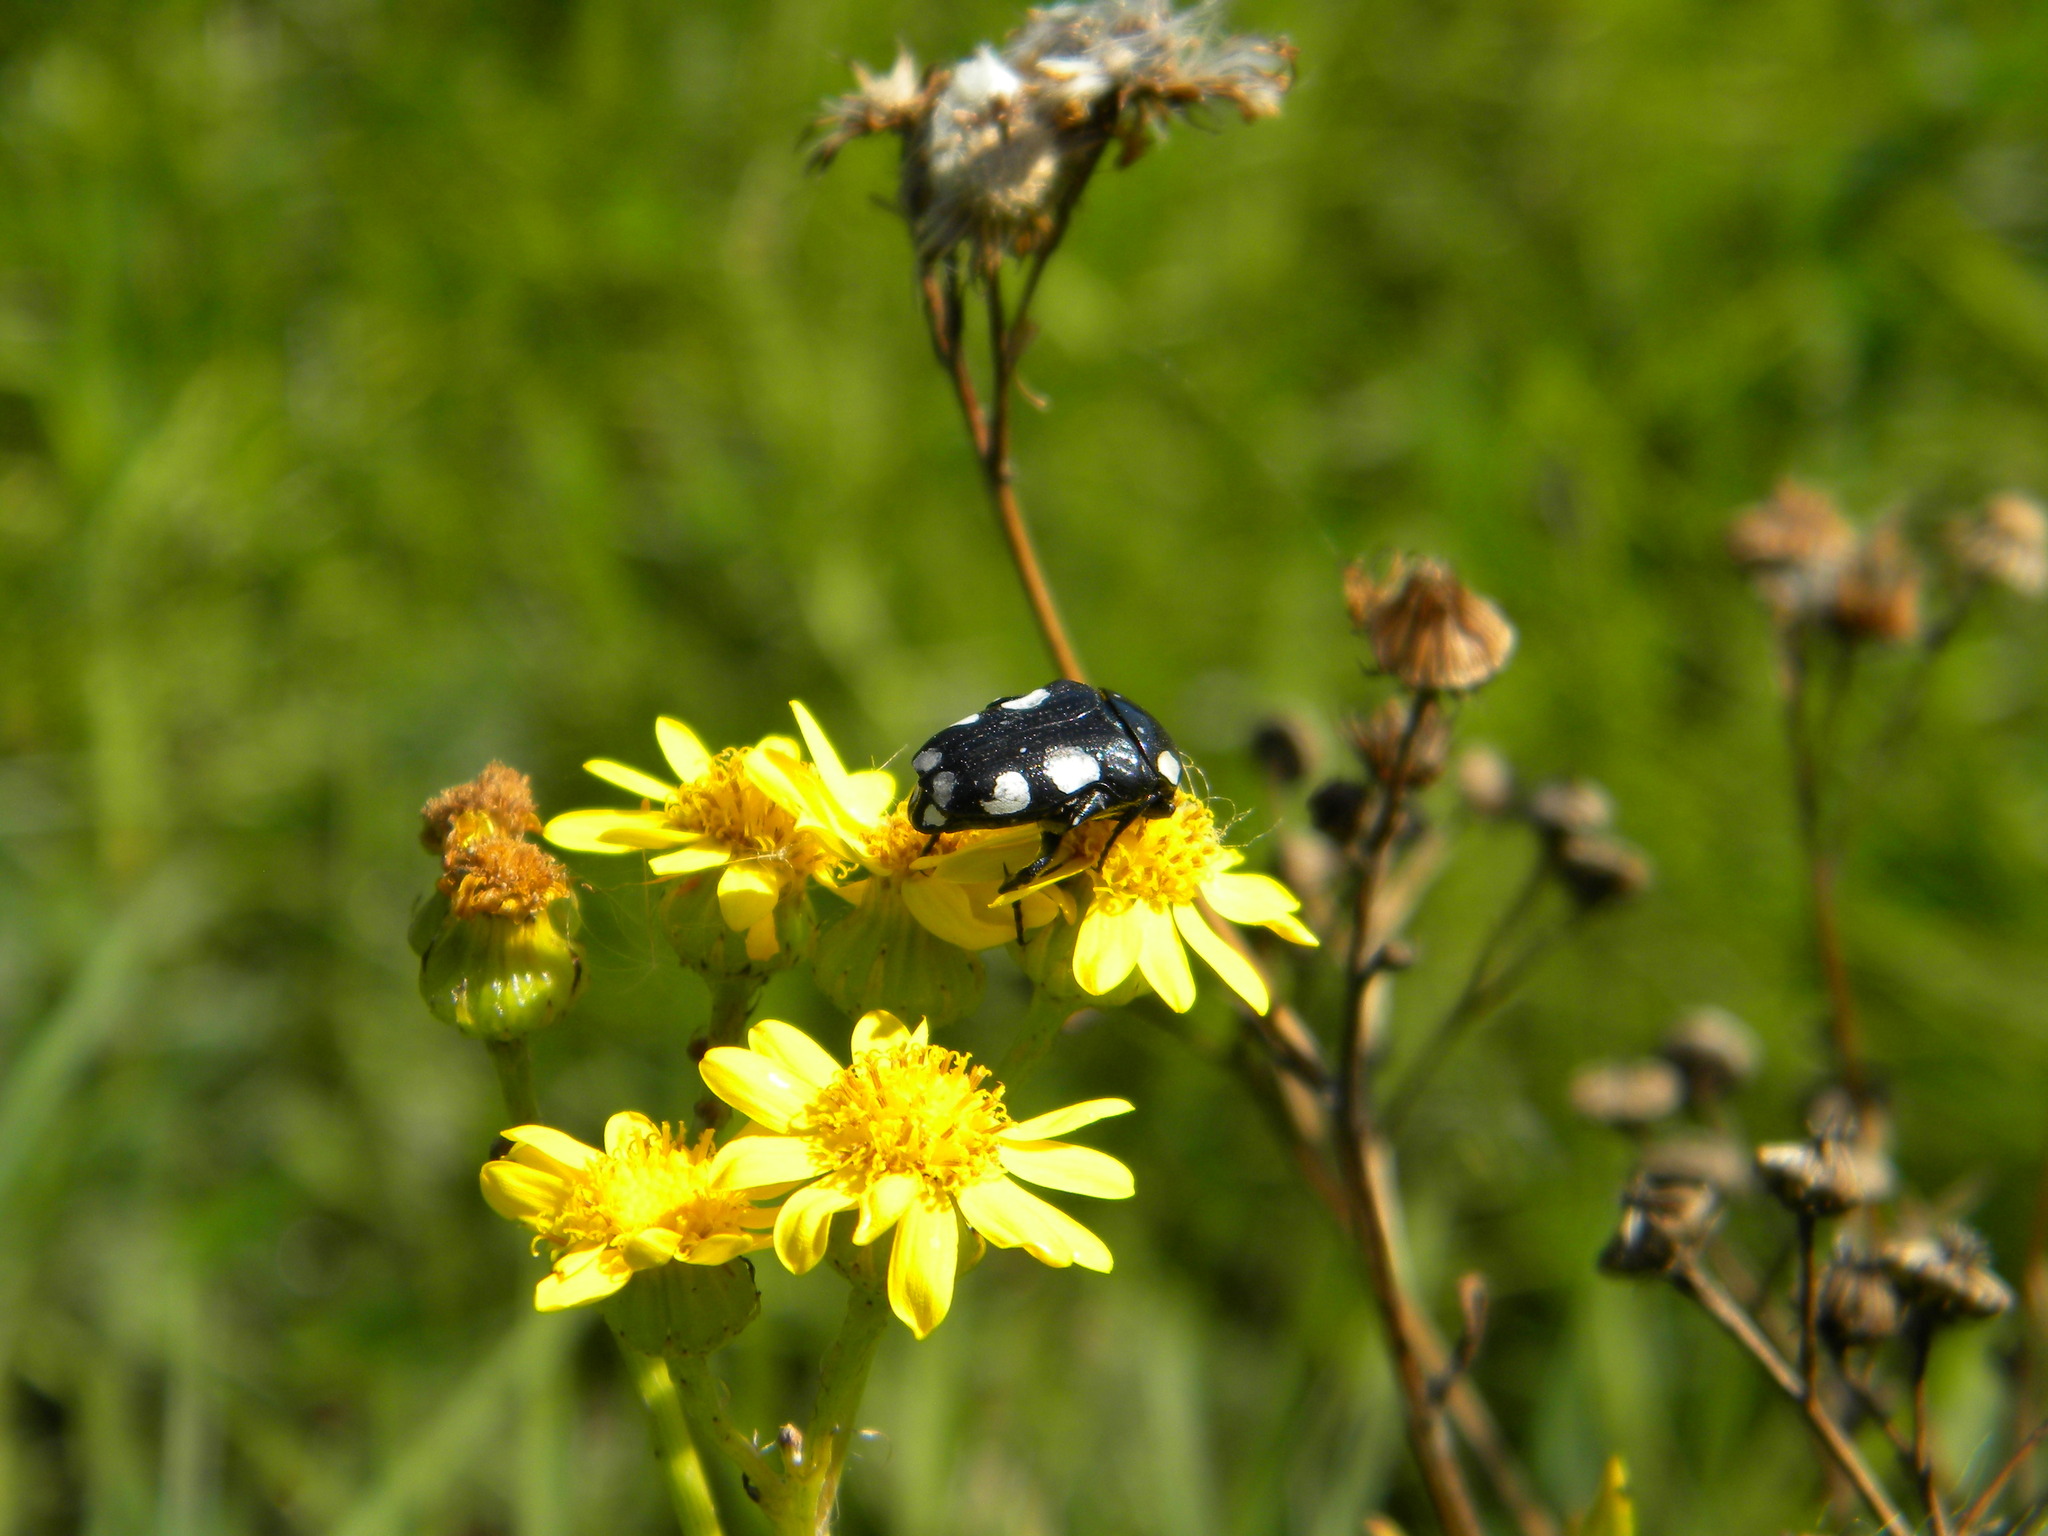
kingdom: Animalia
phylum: Arthropoda
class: Insecta
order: Coleoptera
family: Scarabaeidae
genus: Mausoleopsis
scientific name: Mausoleopsis amabilis
